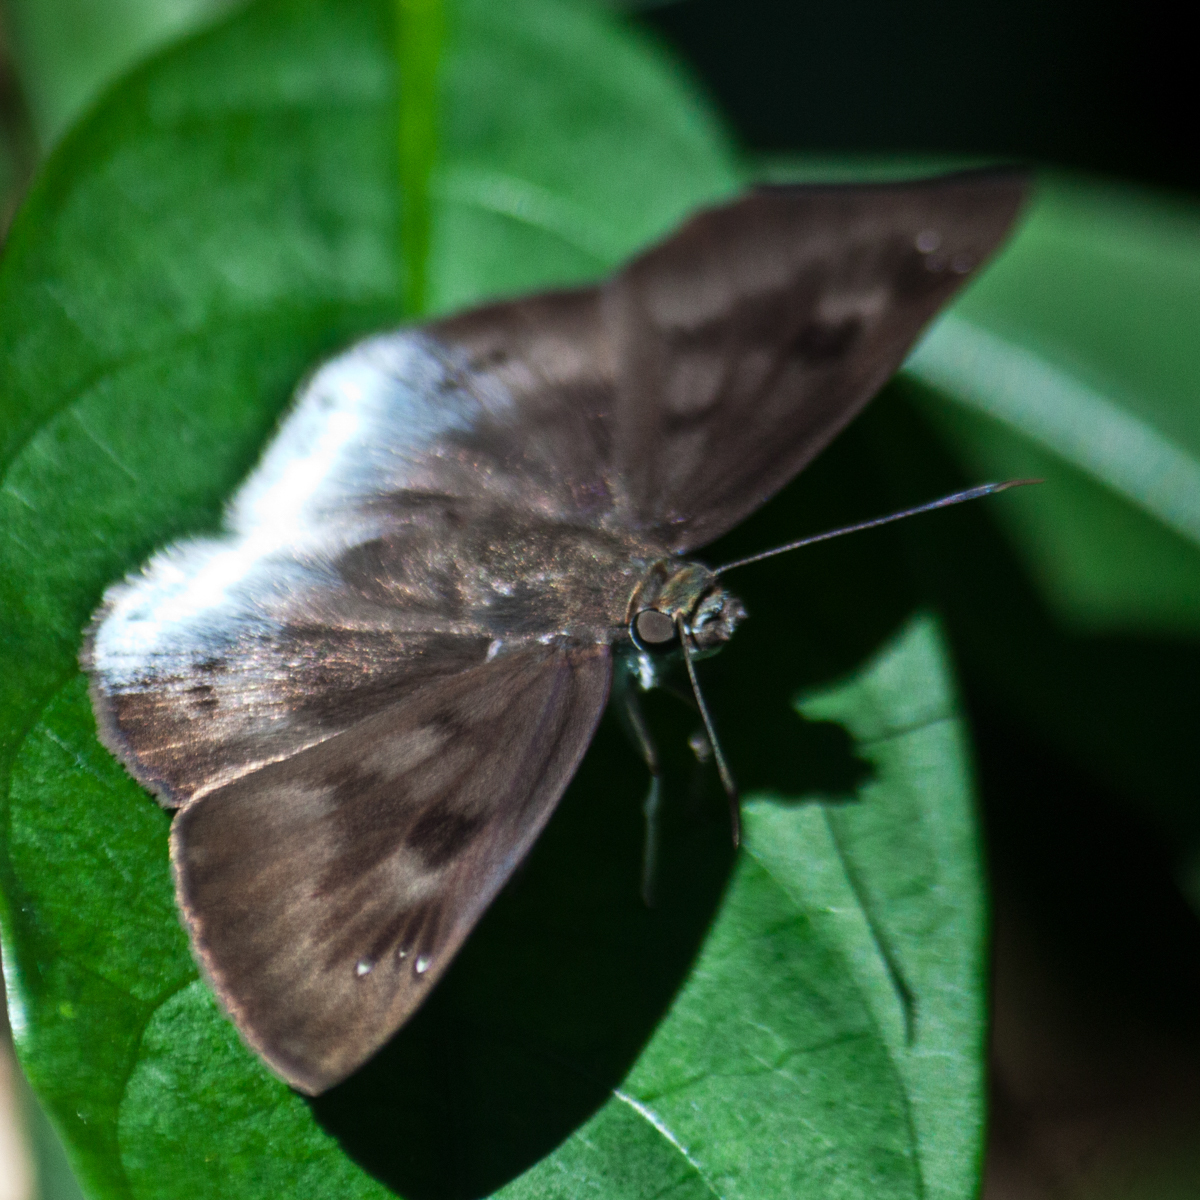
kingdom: Animalia
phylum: Arthropoda
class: Insecta
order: Lepidoptera
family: Hesperiidae
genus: Tagiades
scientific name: Tagiades gana
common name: Suffused snow flat
